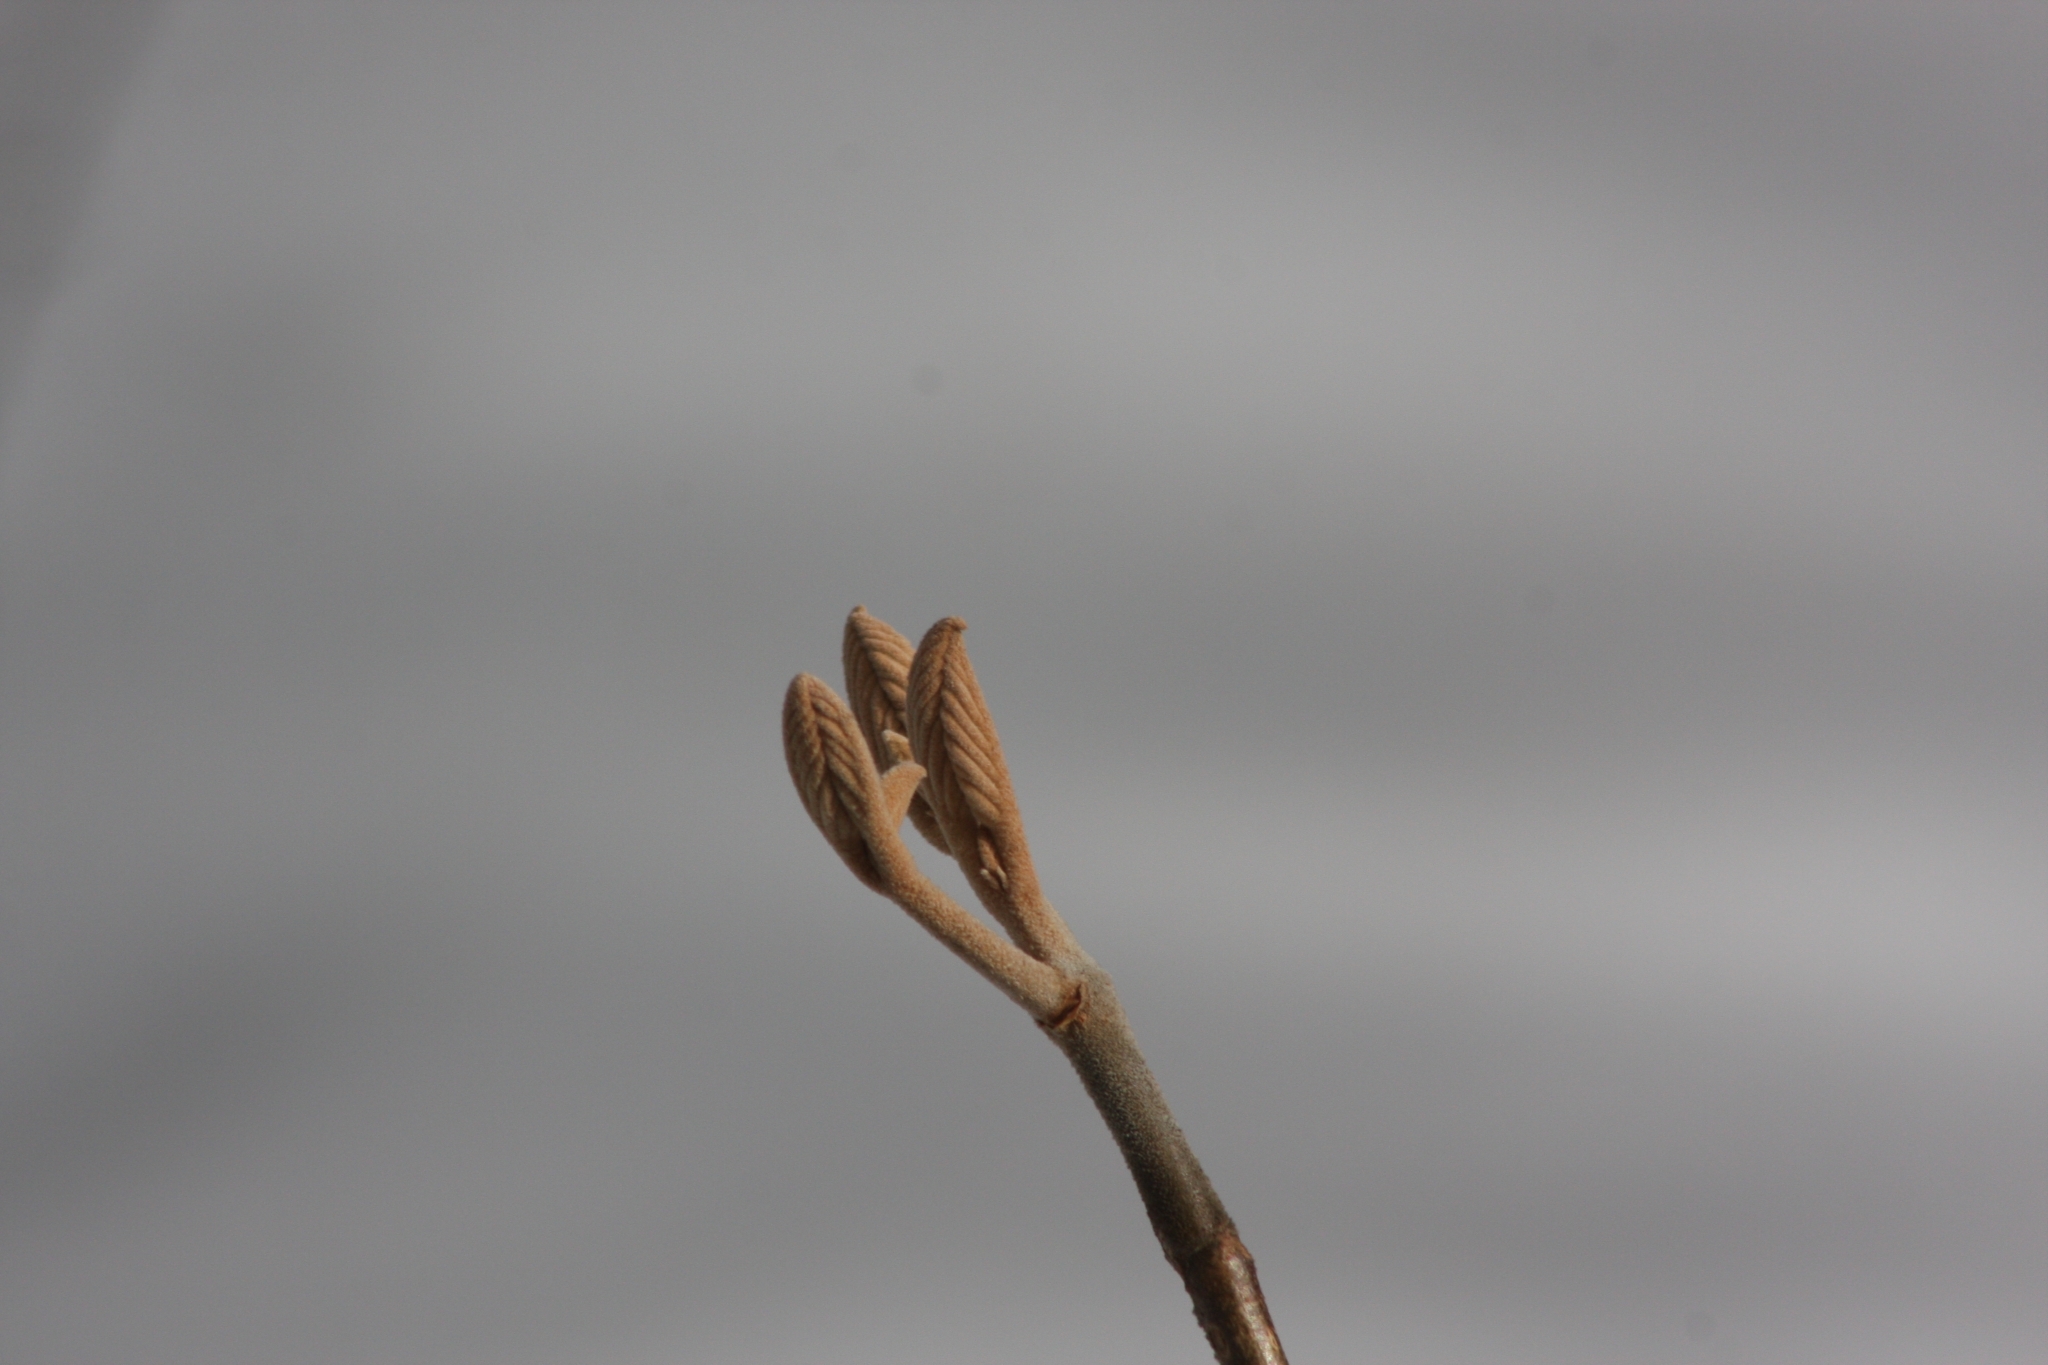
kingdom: Plantae
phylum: Tracheophyta
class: Magnoliopsida
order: Dipsacales
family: Viburnaceae
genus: Viburnum
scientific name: Viburnum lantanoides
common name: Hobblebush
